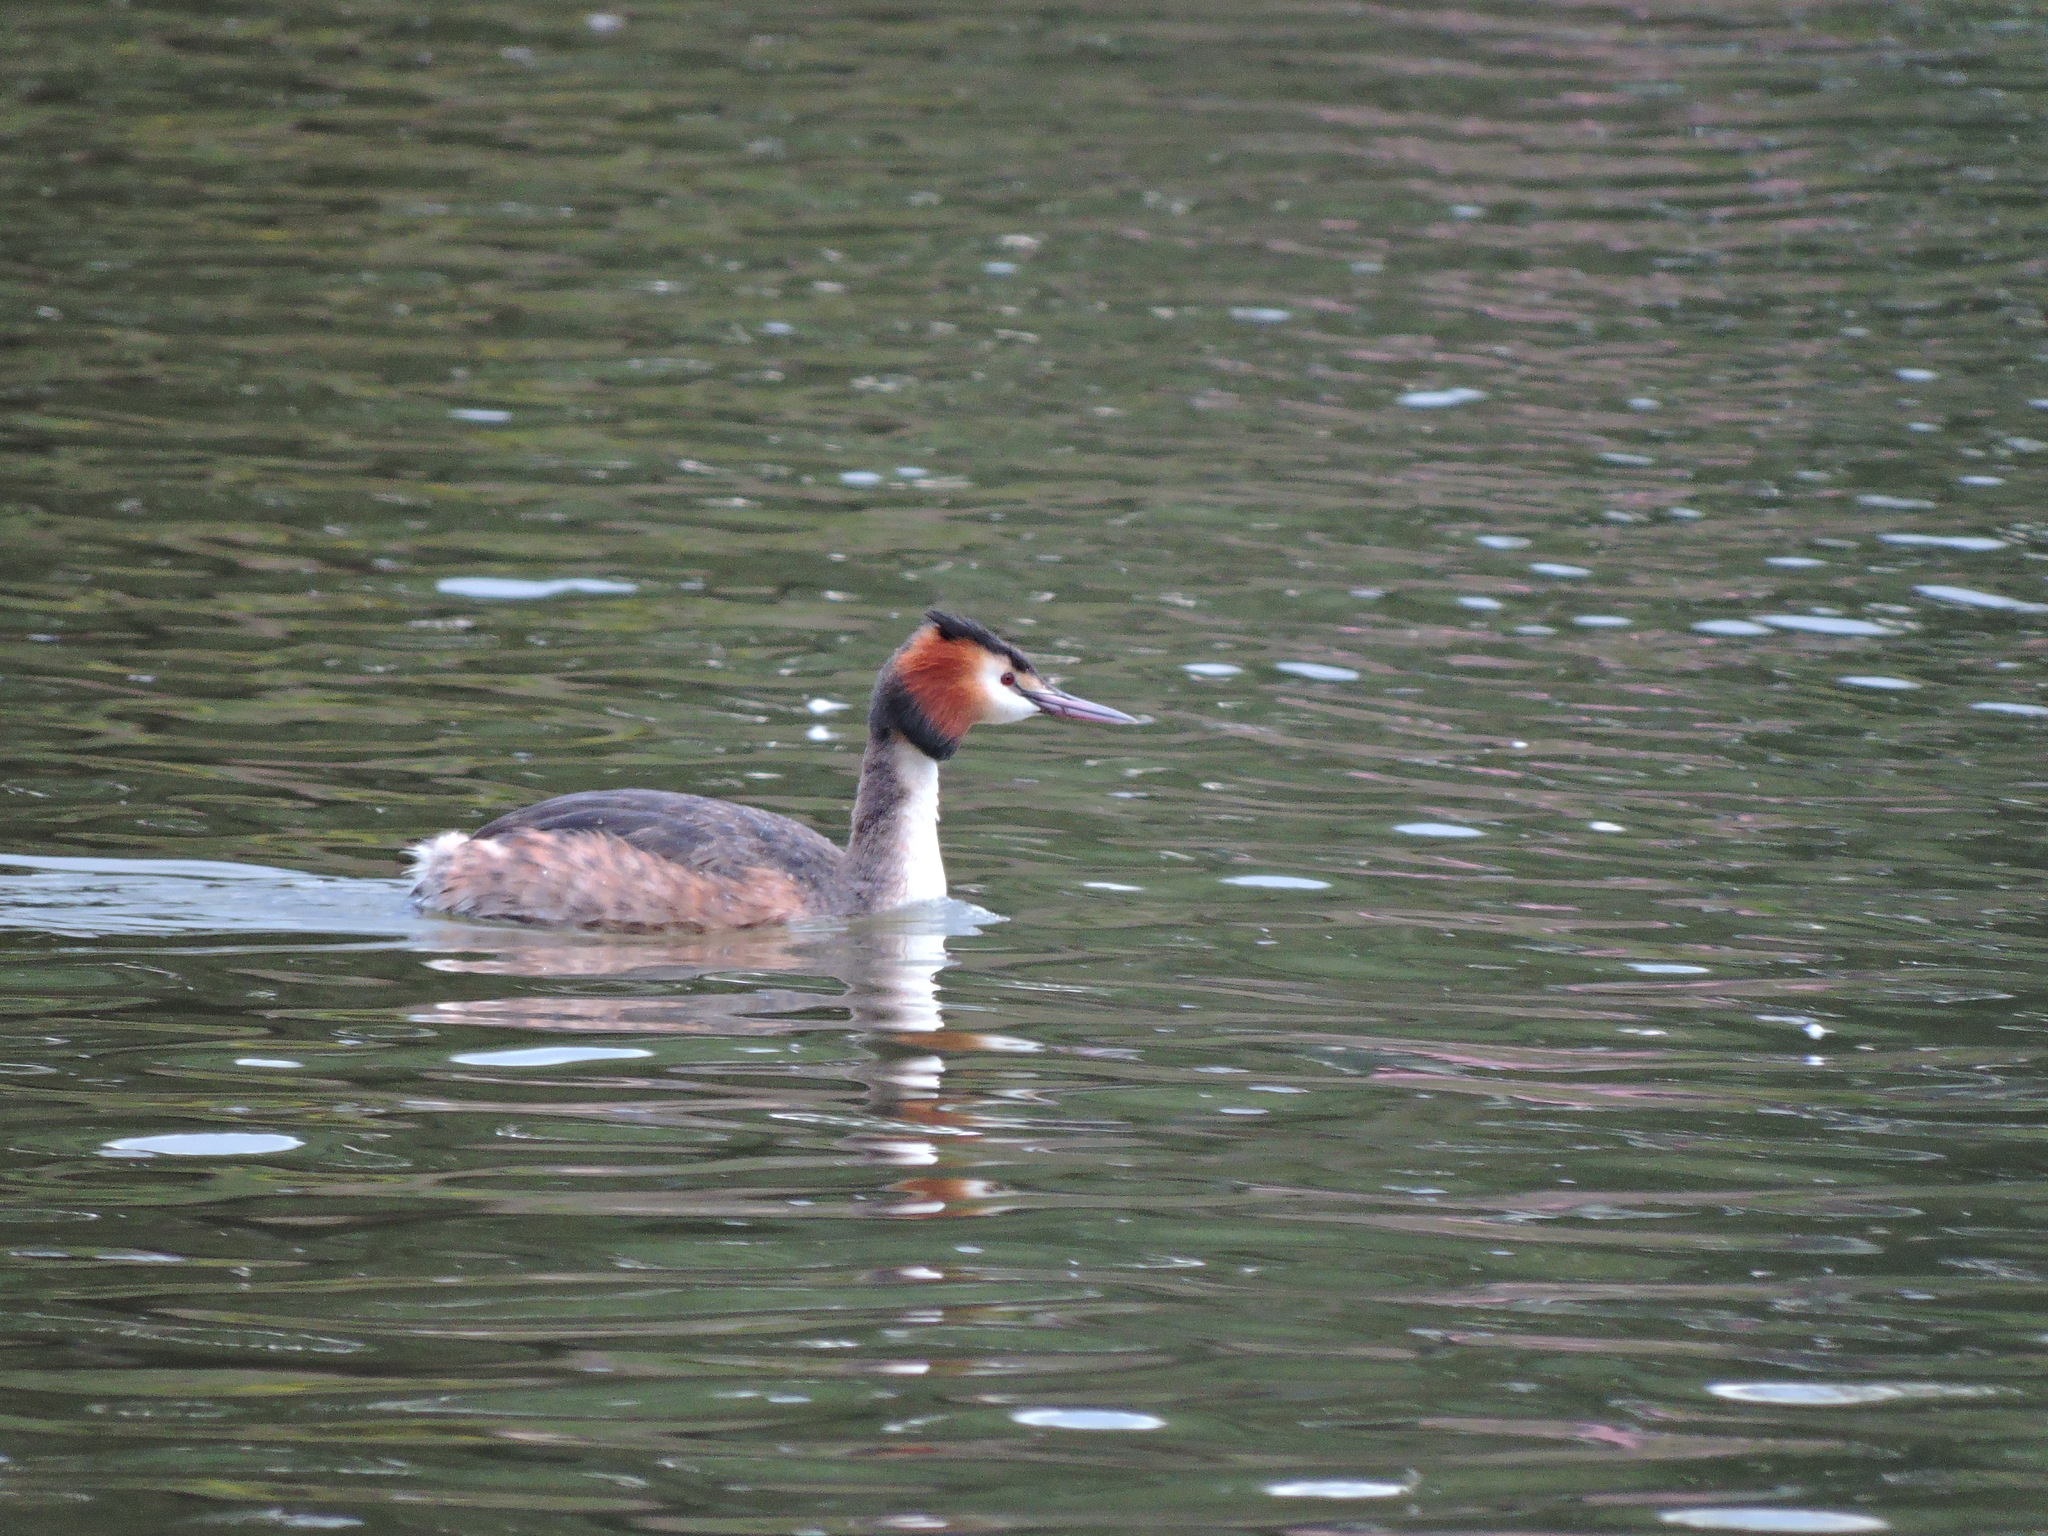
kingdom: Animalia
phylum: Chordata
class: Aves
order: Podicipediformes
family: Podicipedidae
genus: Podiceps
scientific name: Podiceps cristatus
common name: Great crested grebe
